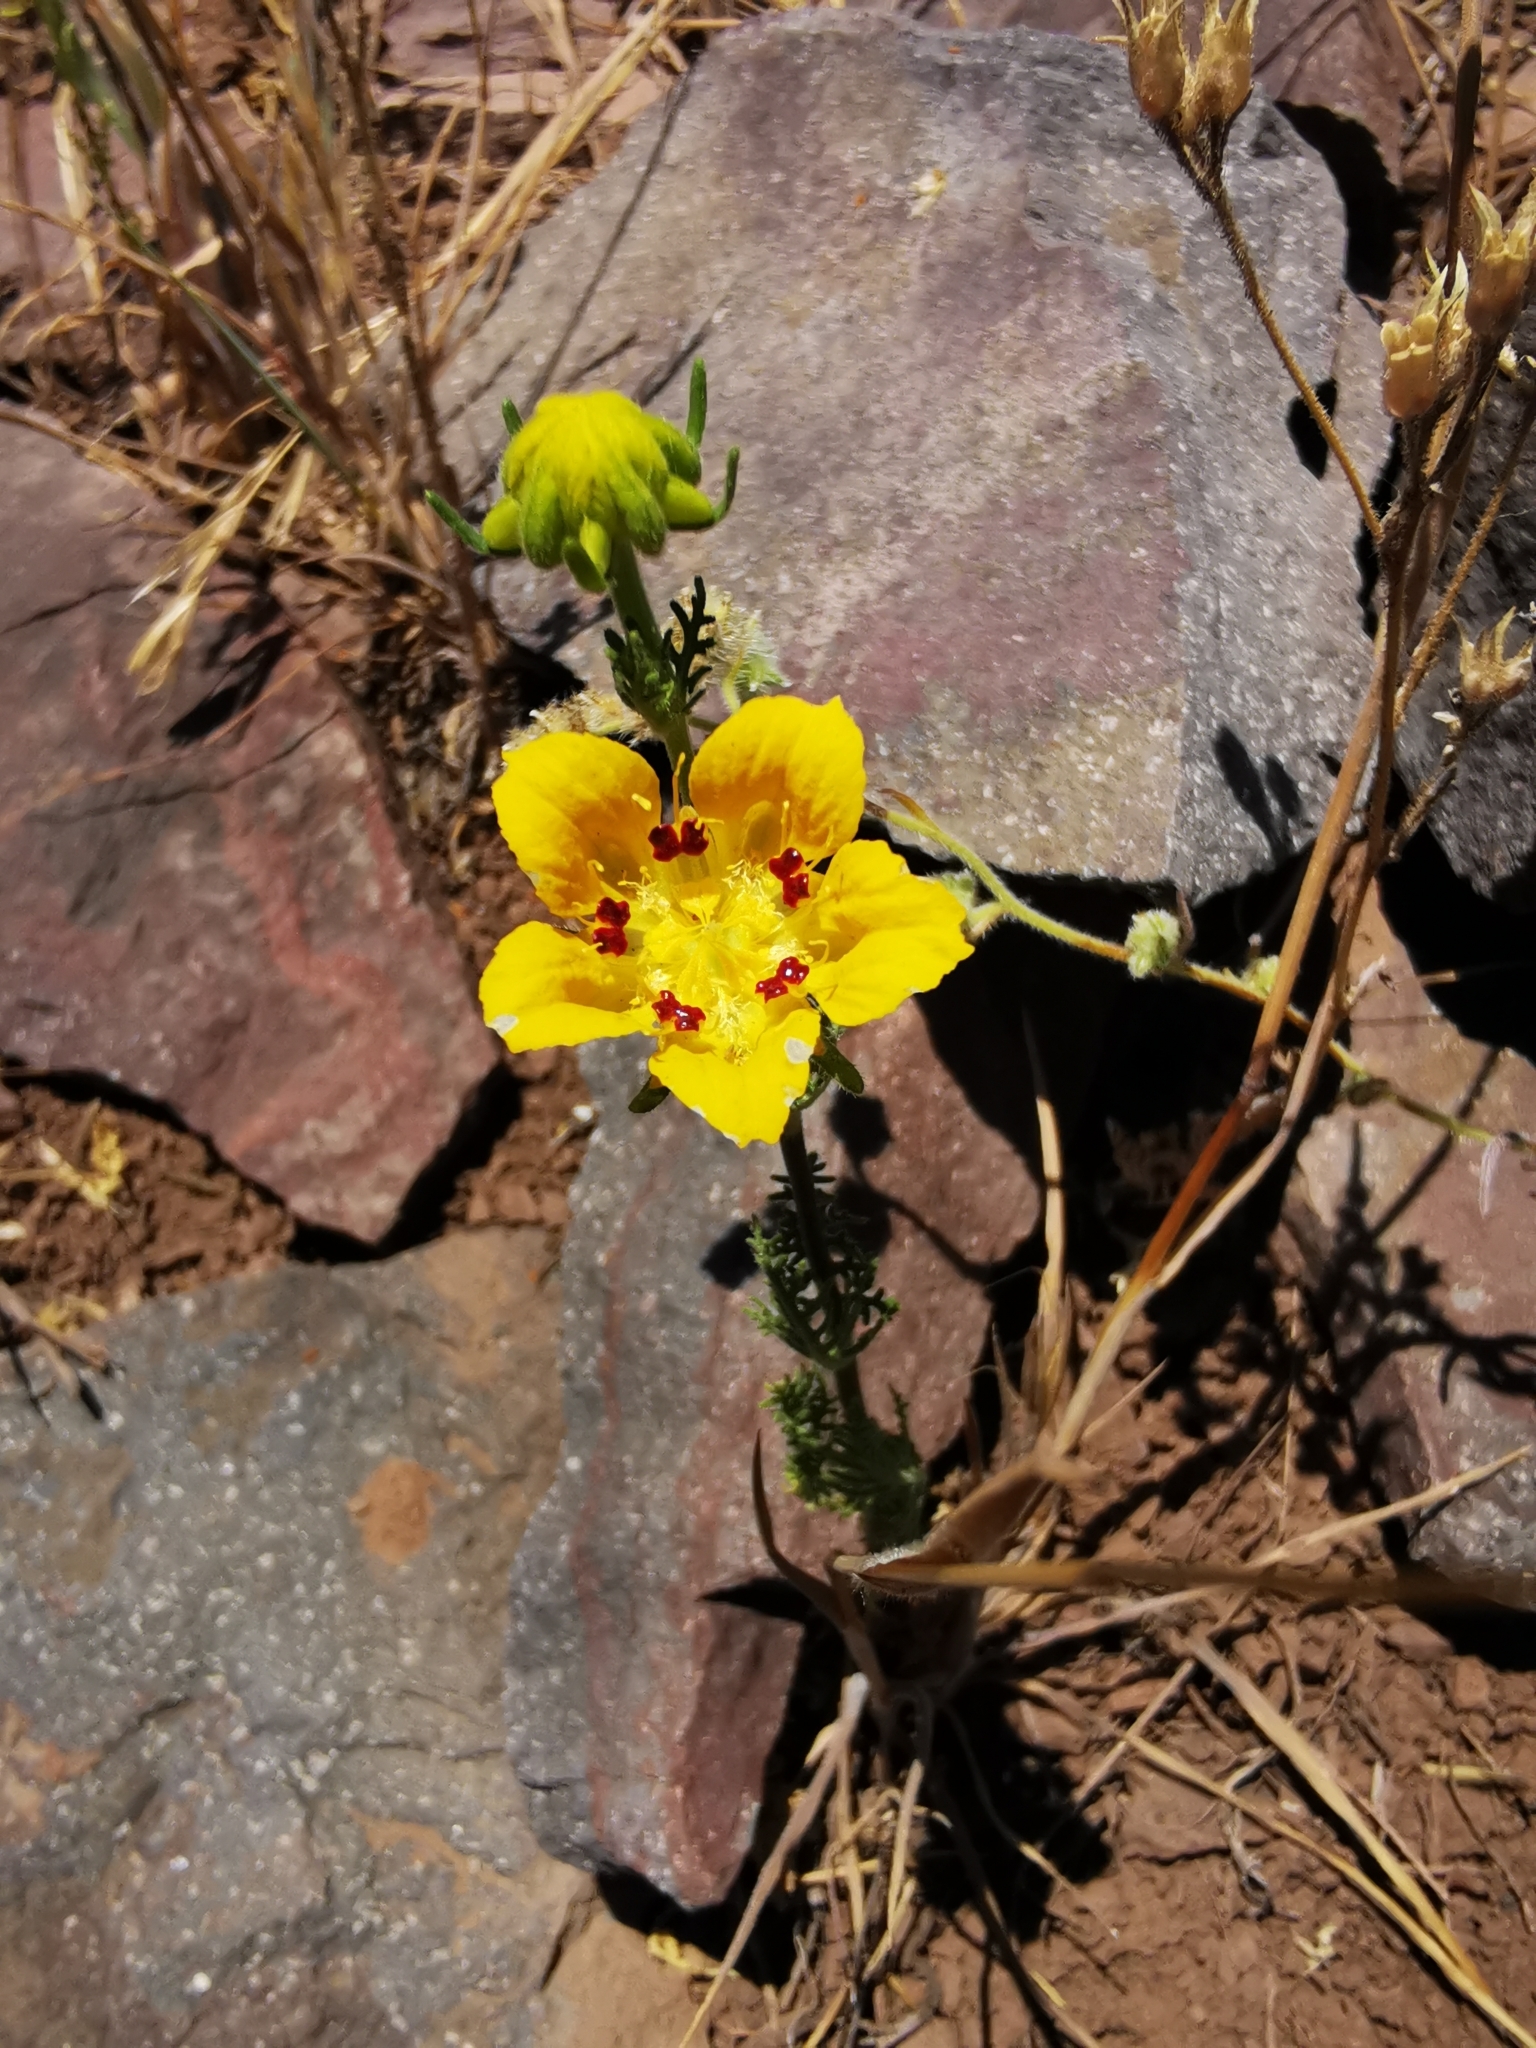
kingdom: Plantae
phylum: Tracheophyta
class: Magnoliopsida
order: Cornales
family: Loasaceae
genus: Scyphanthus
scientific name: Scyphanthus elegans
